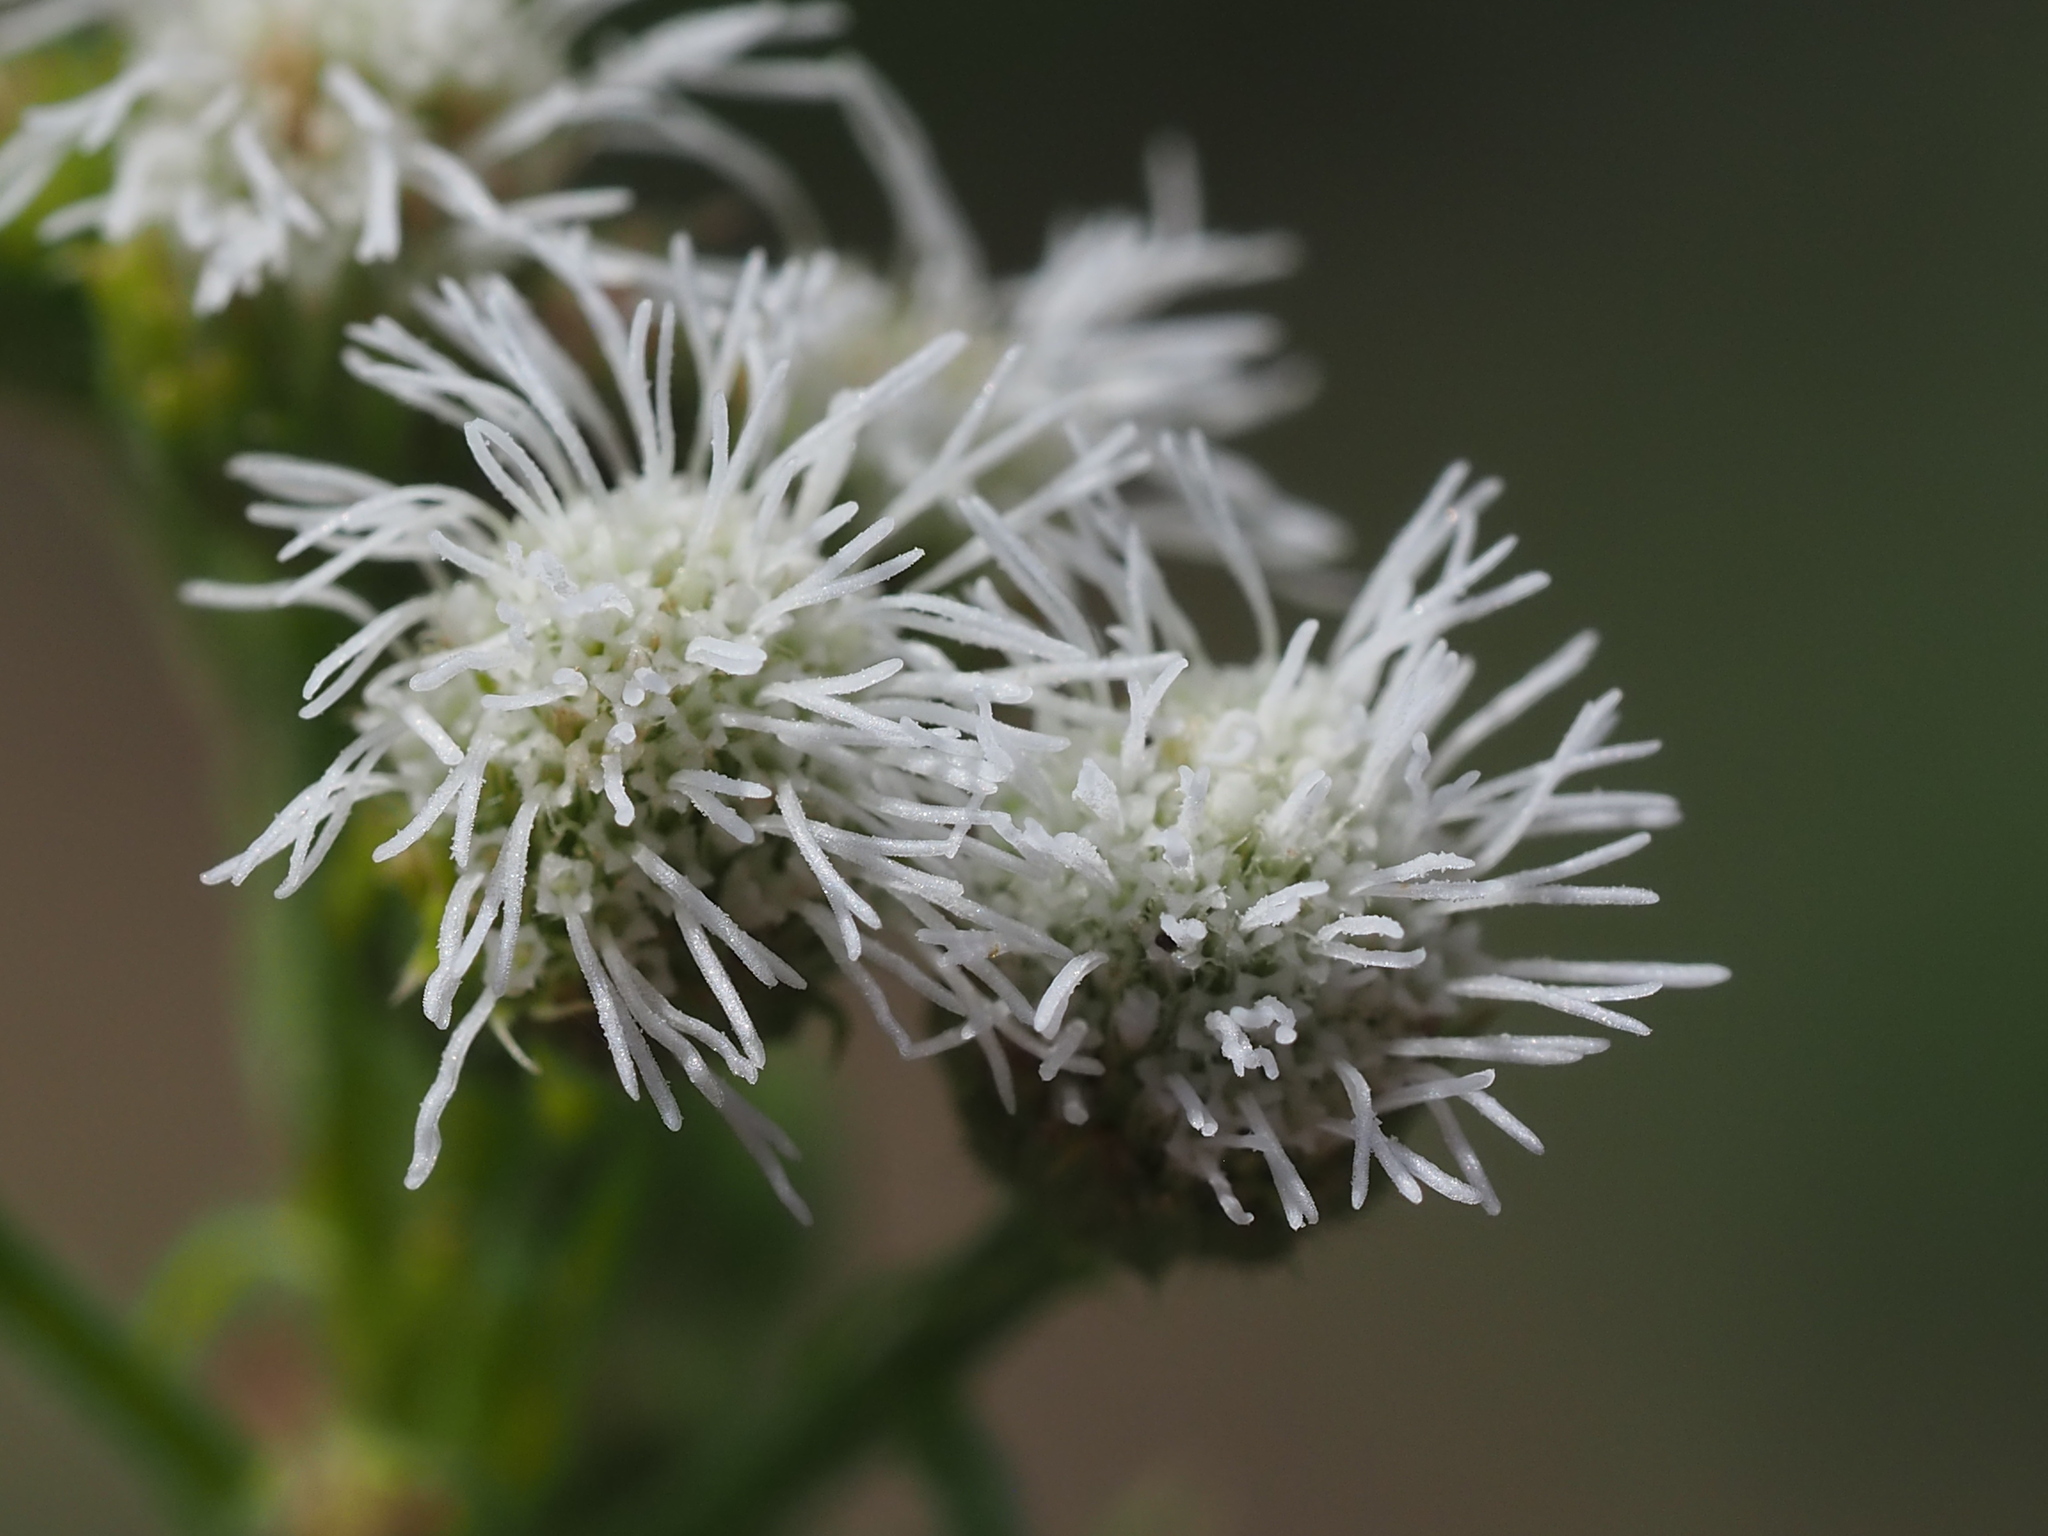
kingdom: Plantae
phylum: Tracheophyta
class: Magnoliopsida
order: Asterales
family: Asteraceae
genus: Ageratum
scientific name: Ageratum conyzoides
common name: Tropical whiteweed
